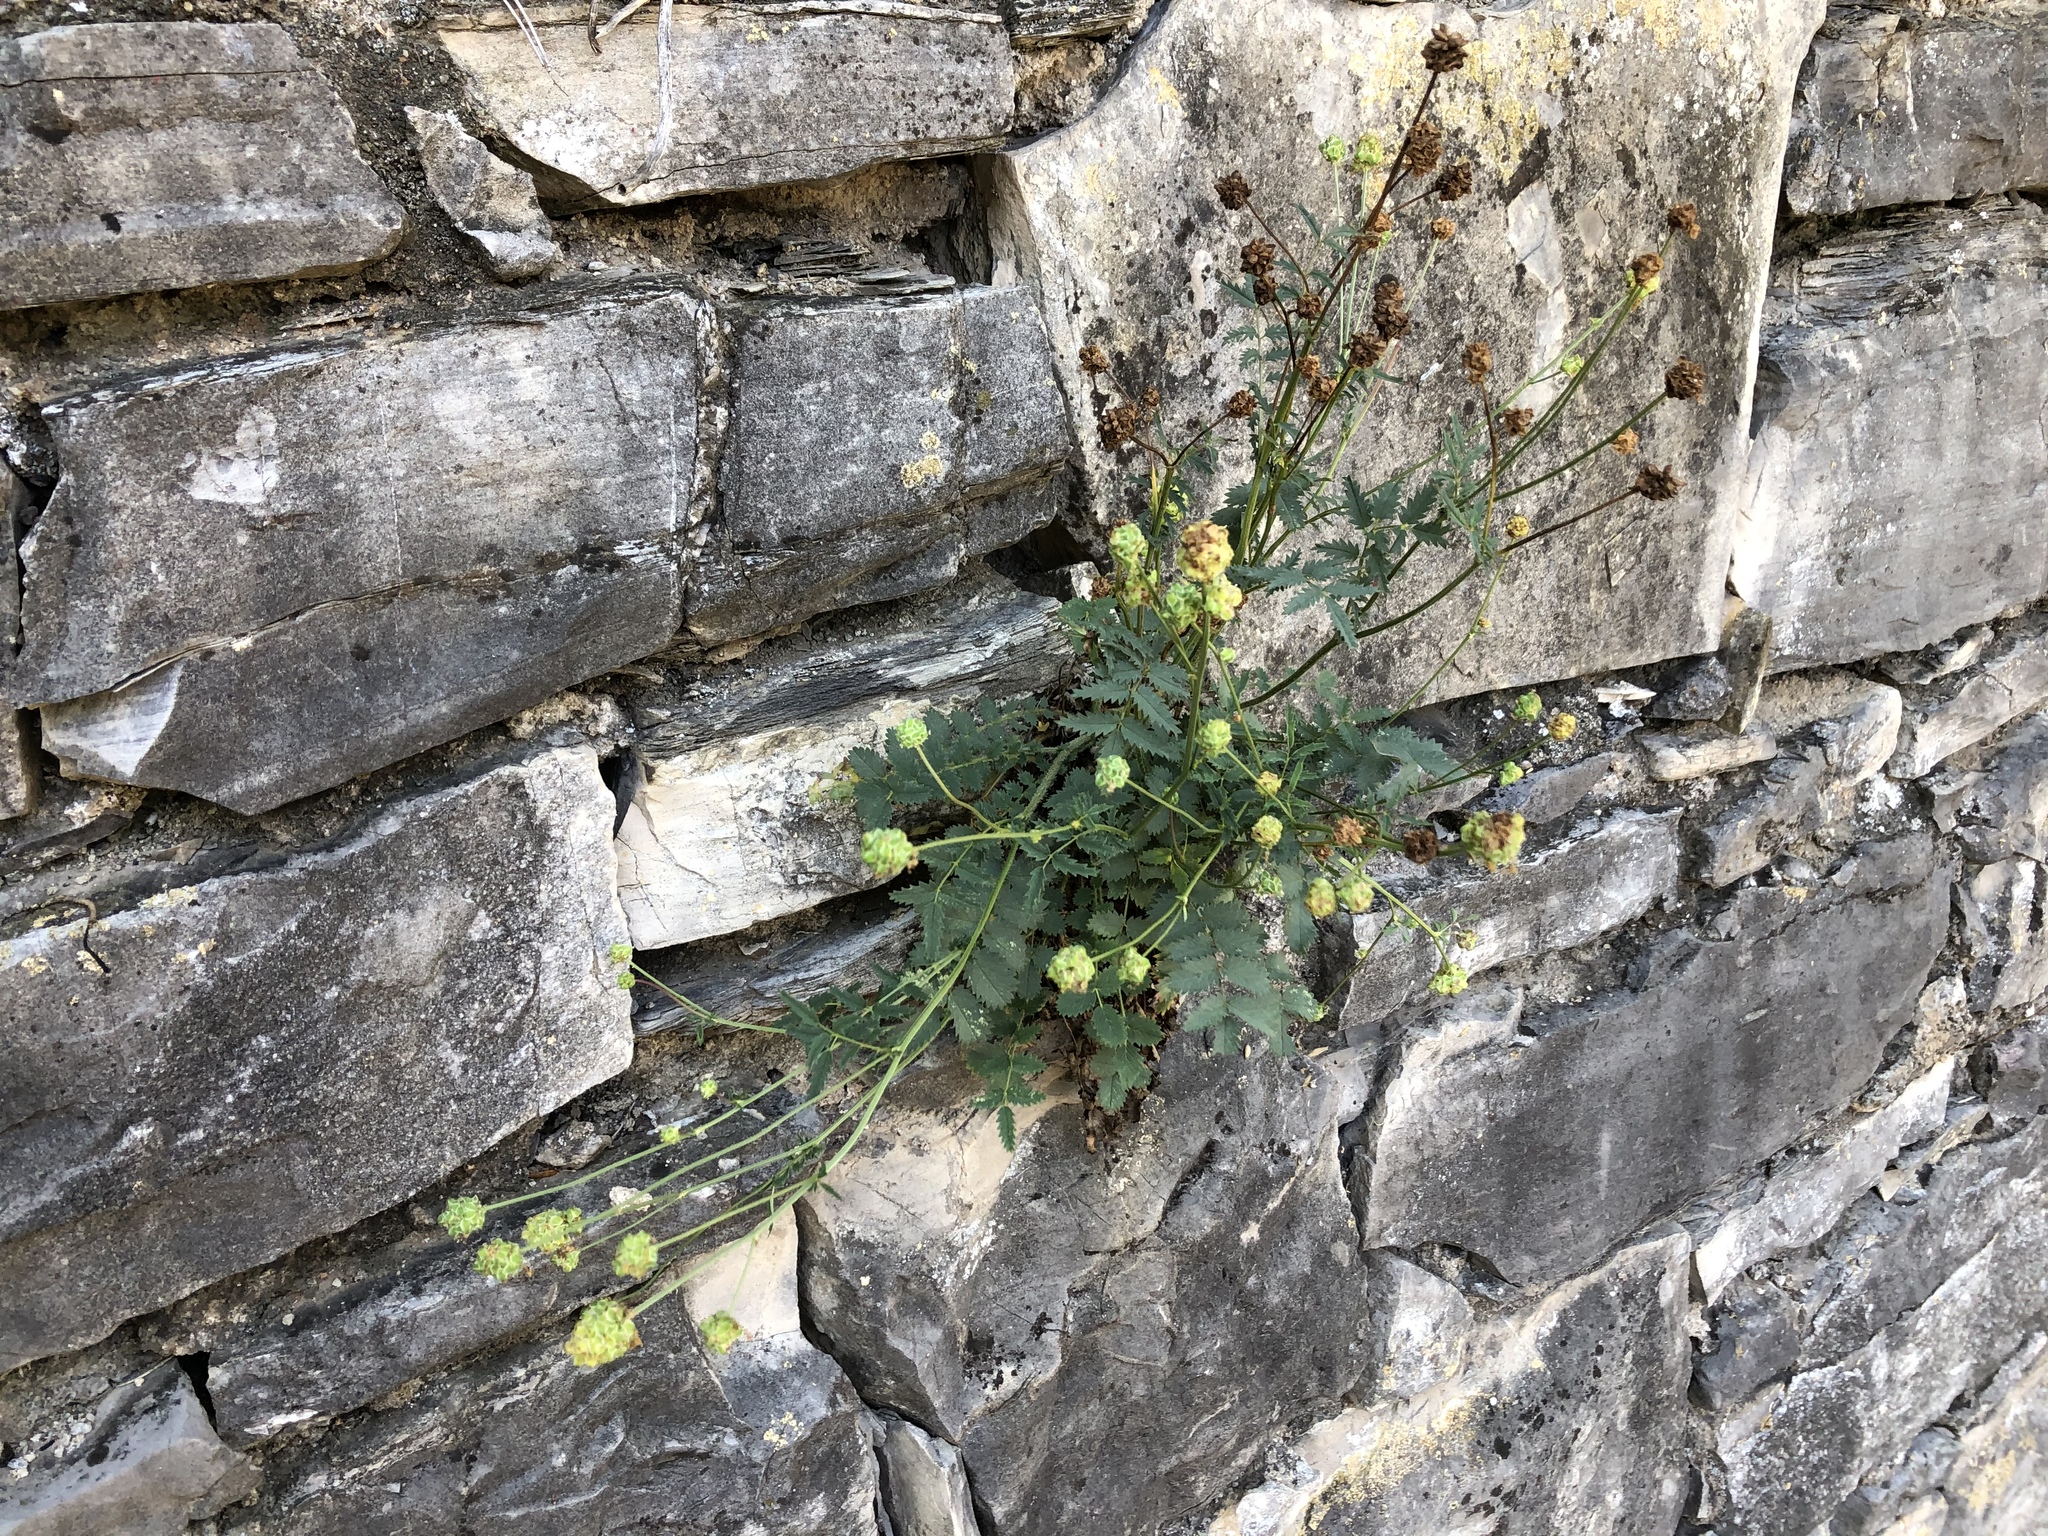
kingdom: Plantae
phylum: Tracheophyta
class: Magnoliopsida
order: Rosales
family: Rosaceae
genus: Poterium
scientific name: Poterium sanguisorba
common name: Salad burnet
